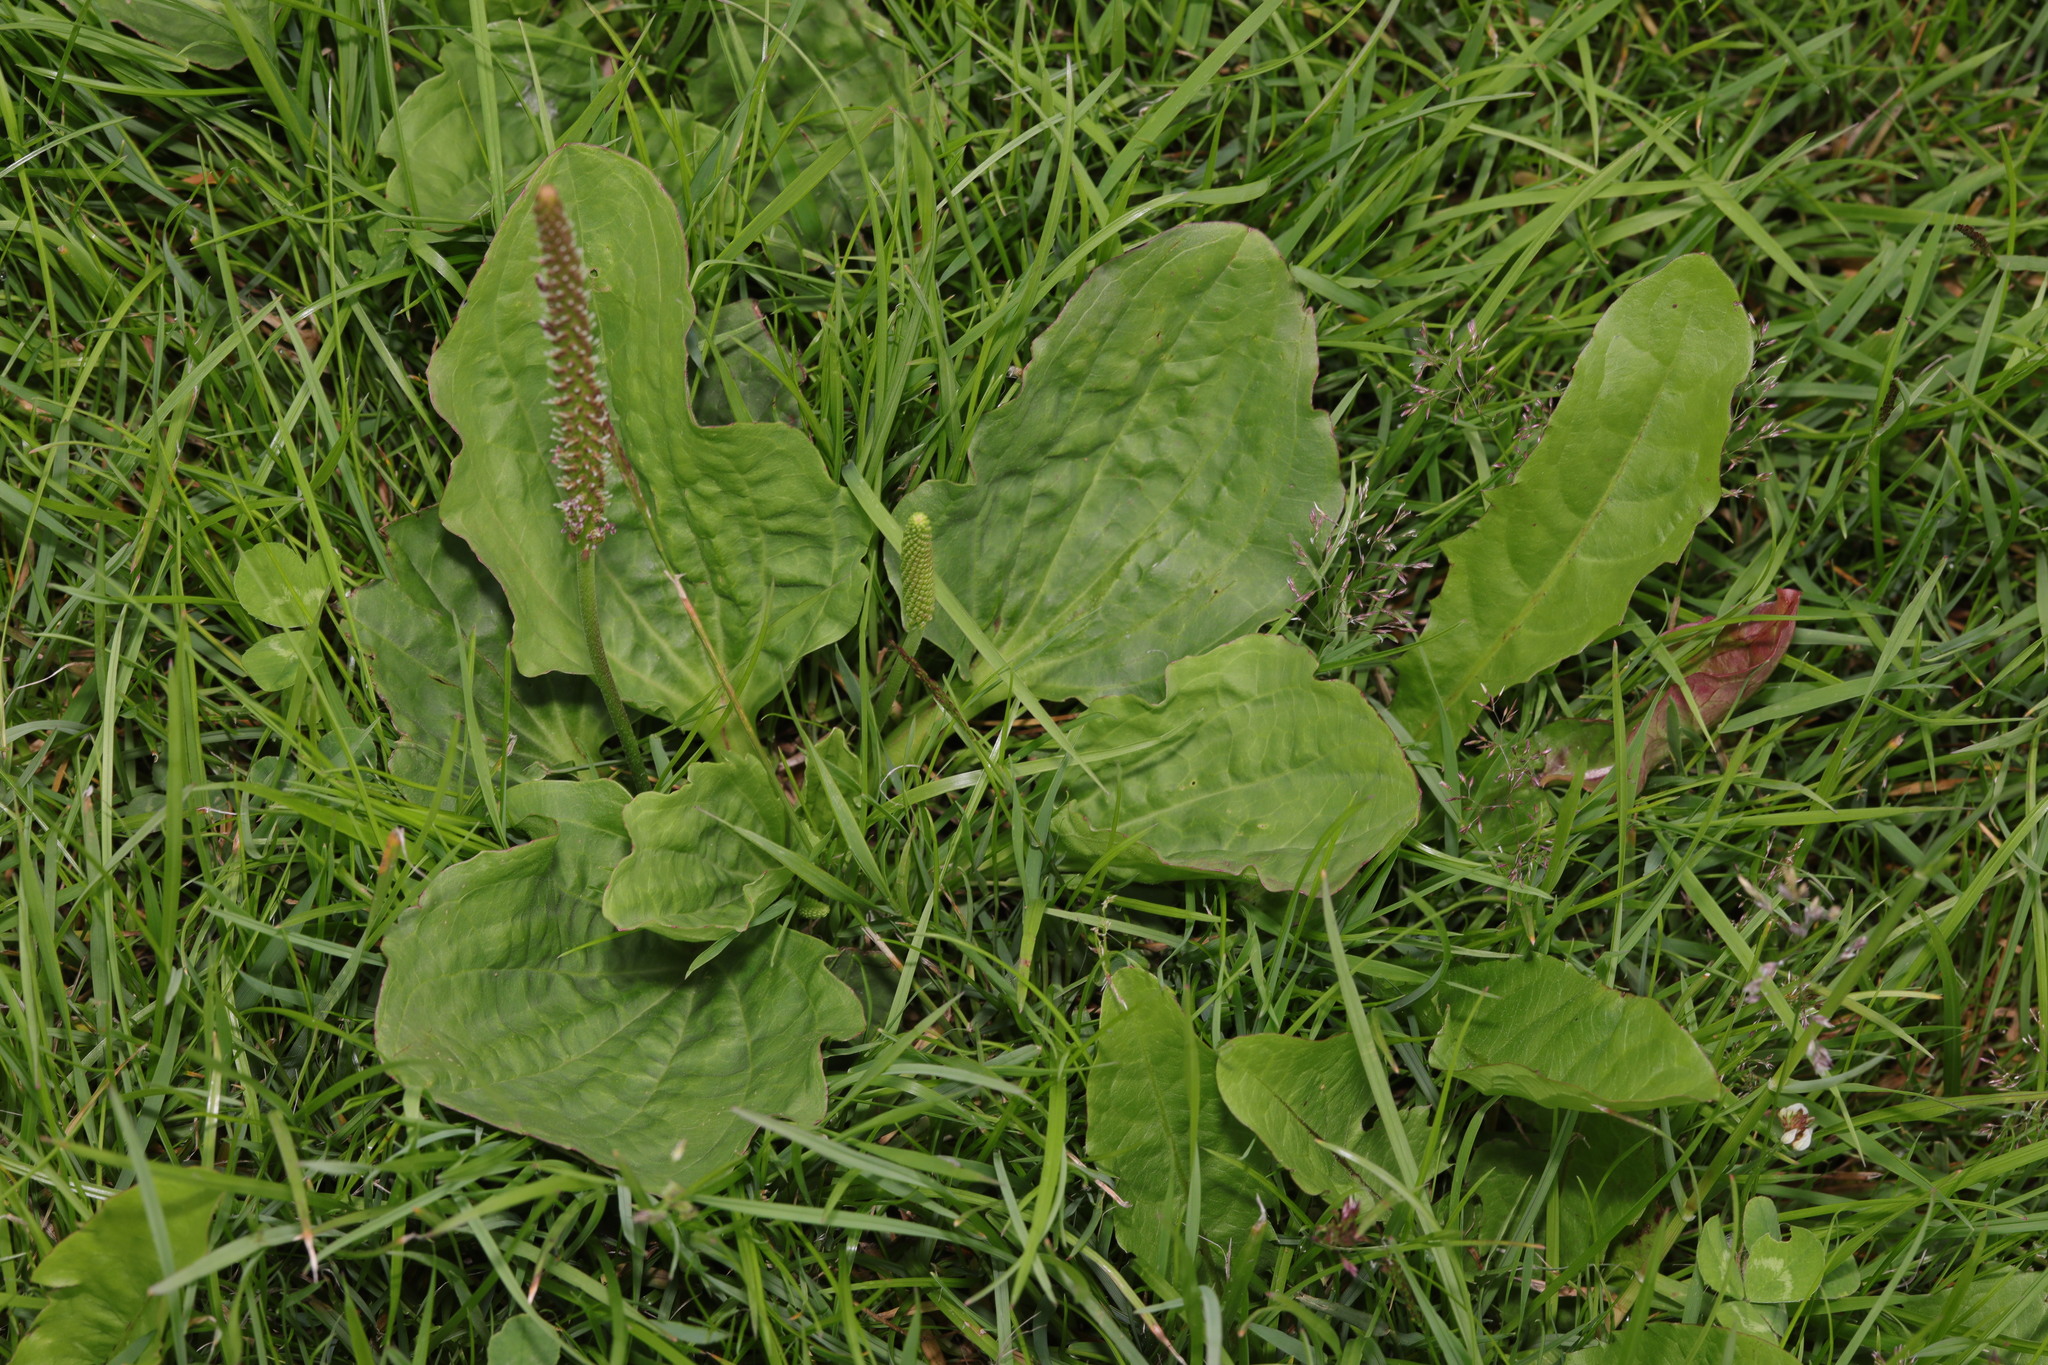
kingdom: Plantae
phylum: Tracheophyta
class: Magnoliopsida
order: Lamiales
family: Plantaginaceae
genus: Plantago
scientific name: Plantago major
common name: Common plantain
